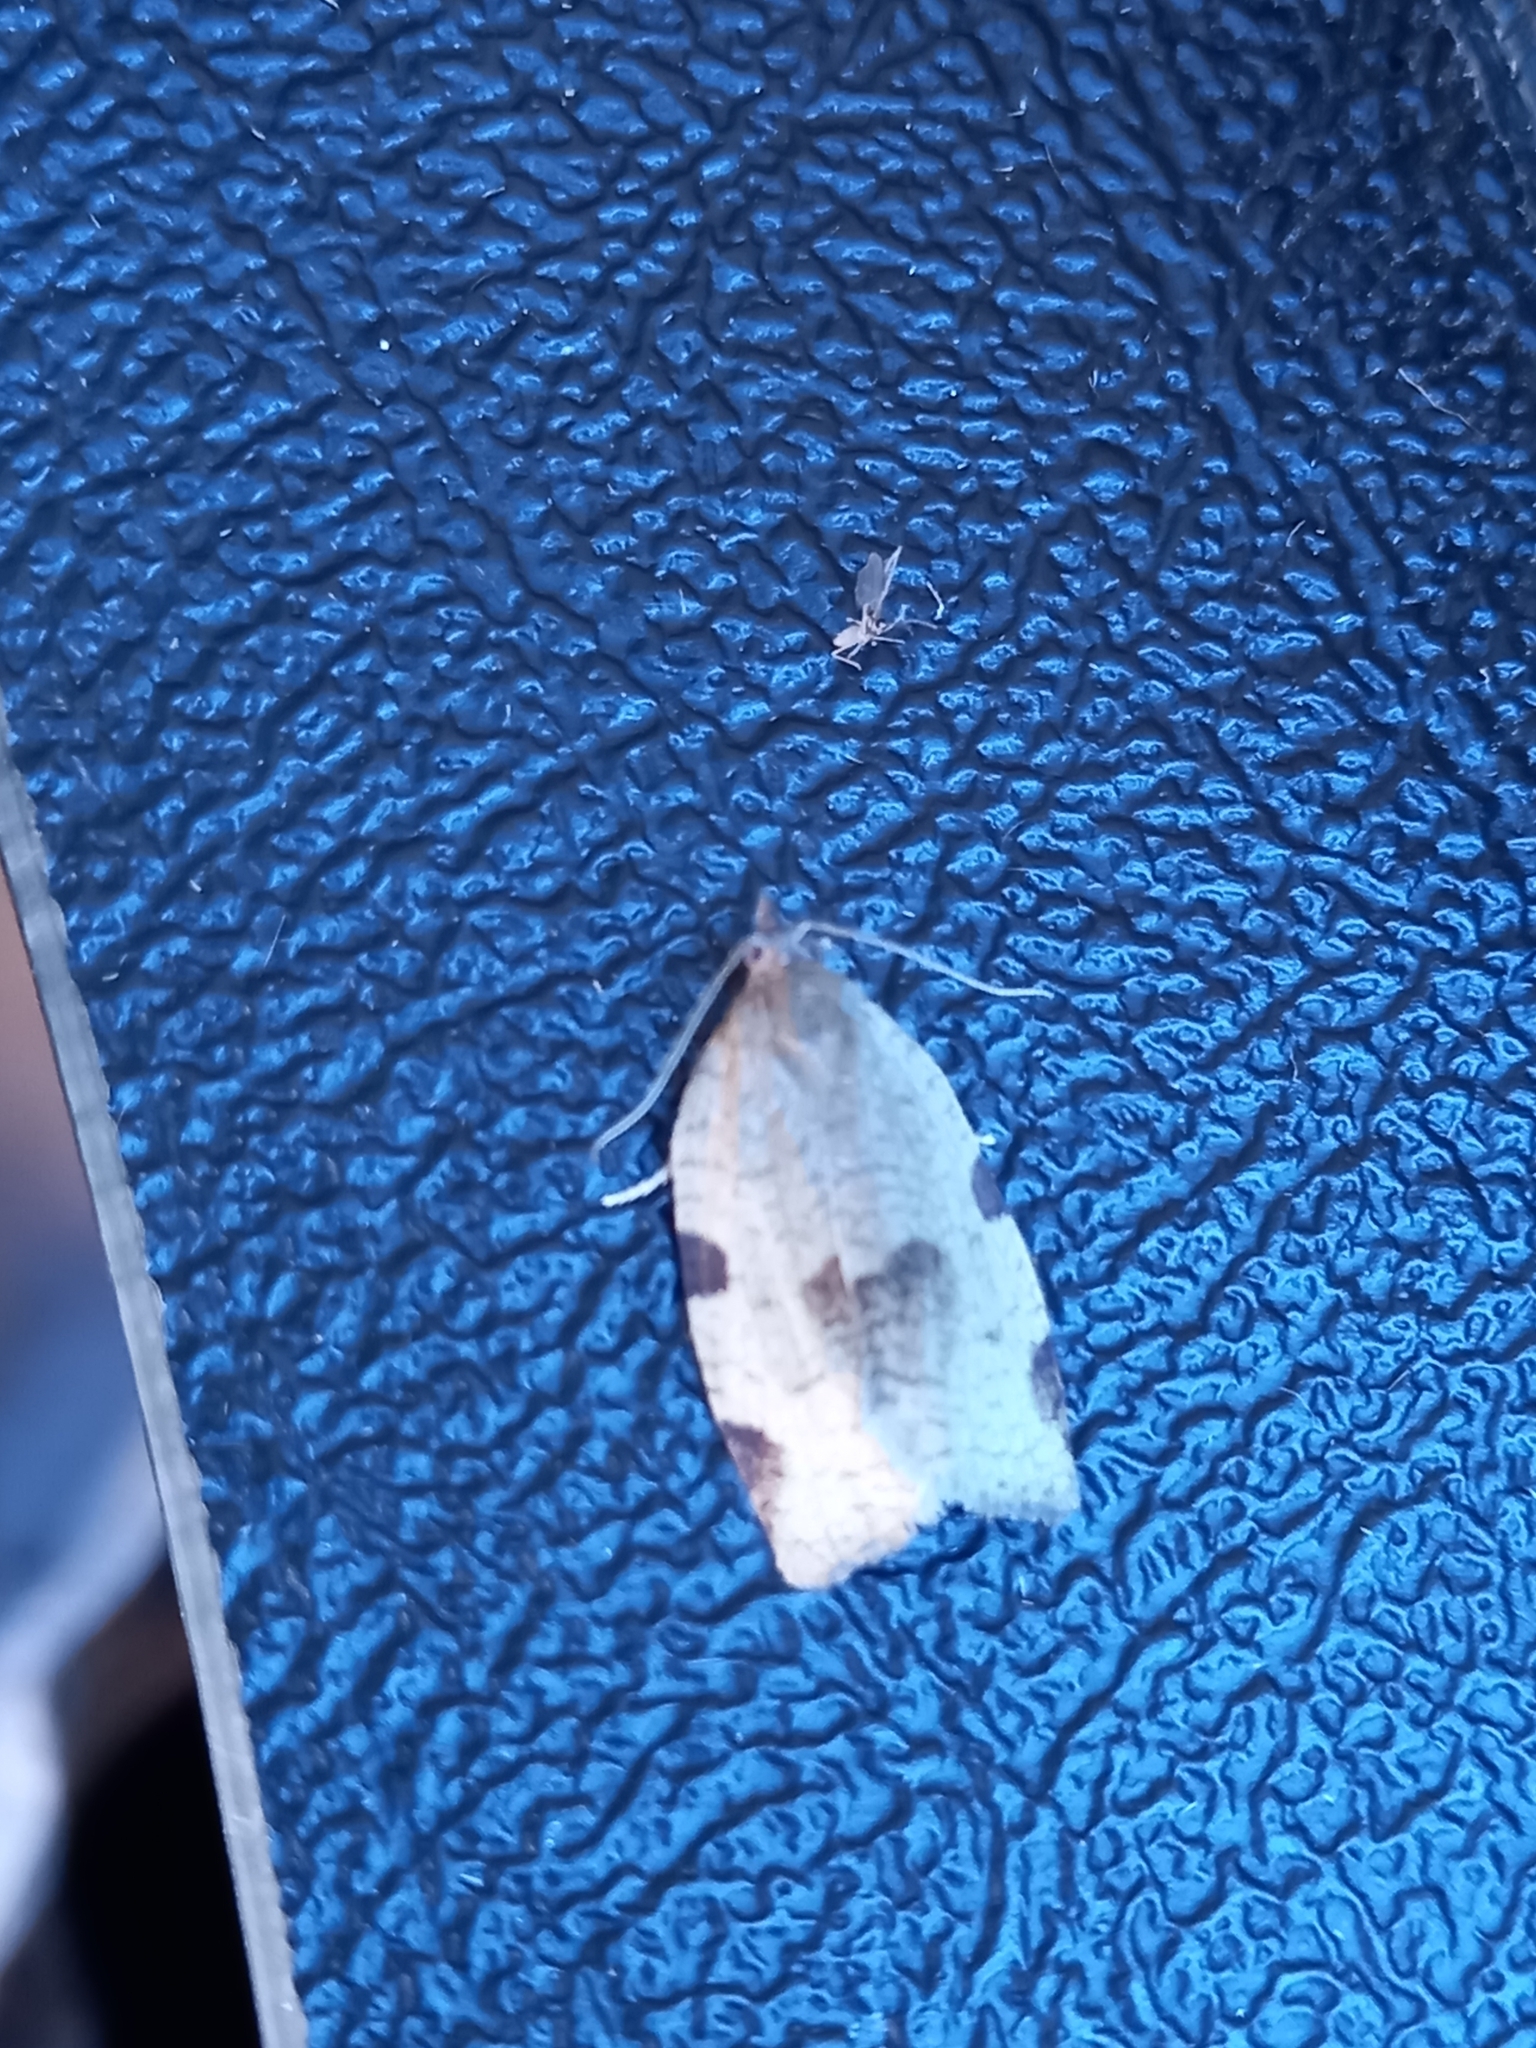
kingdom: Animalia
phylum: Arthropoda
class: Insecta
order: Lepidoptera
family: Tortricidae
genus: Lozotaenia
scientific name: Lozotaenia forsterana
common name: Large ivy twist
